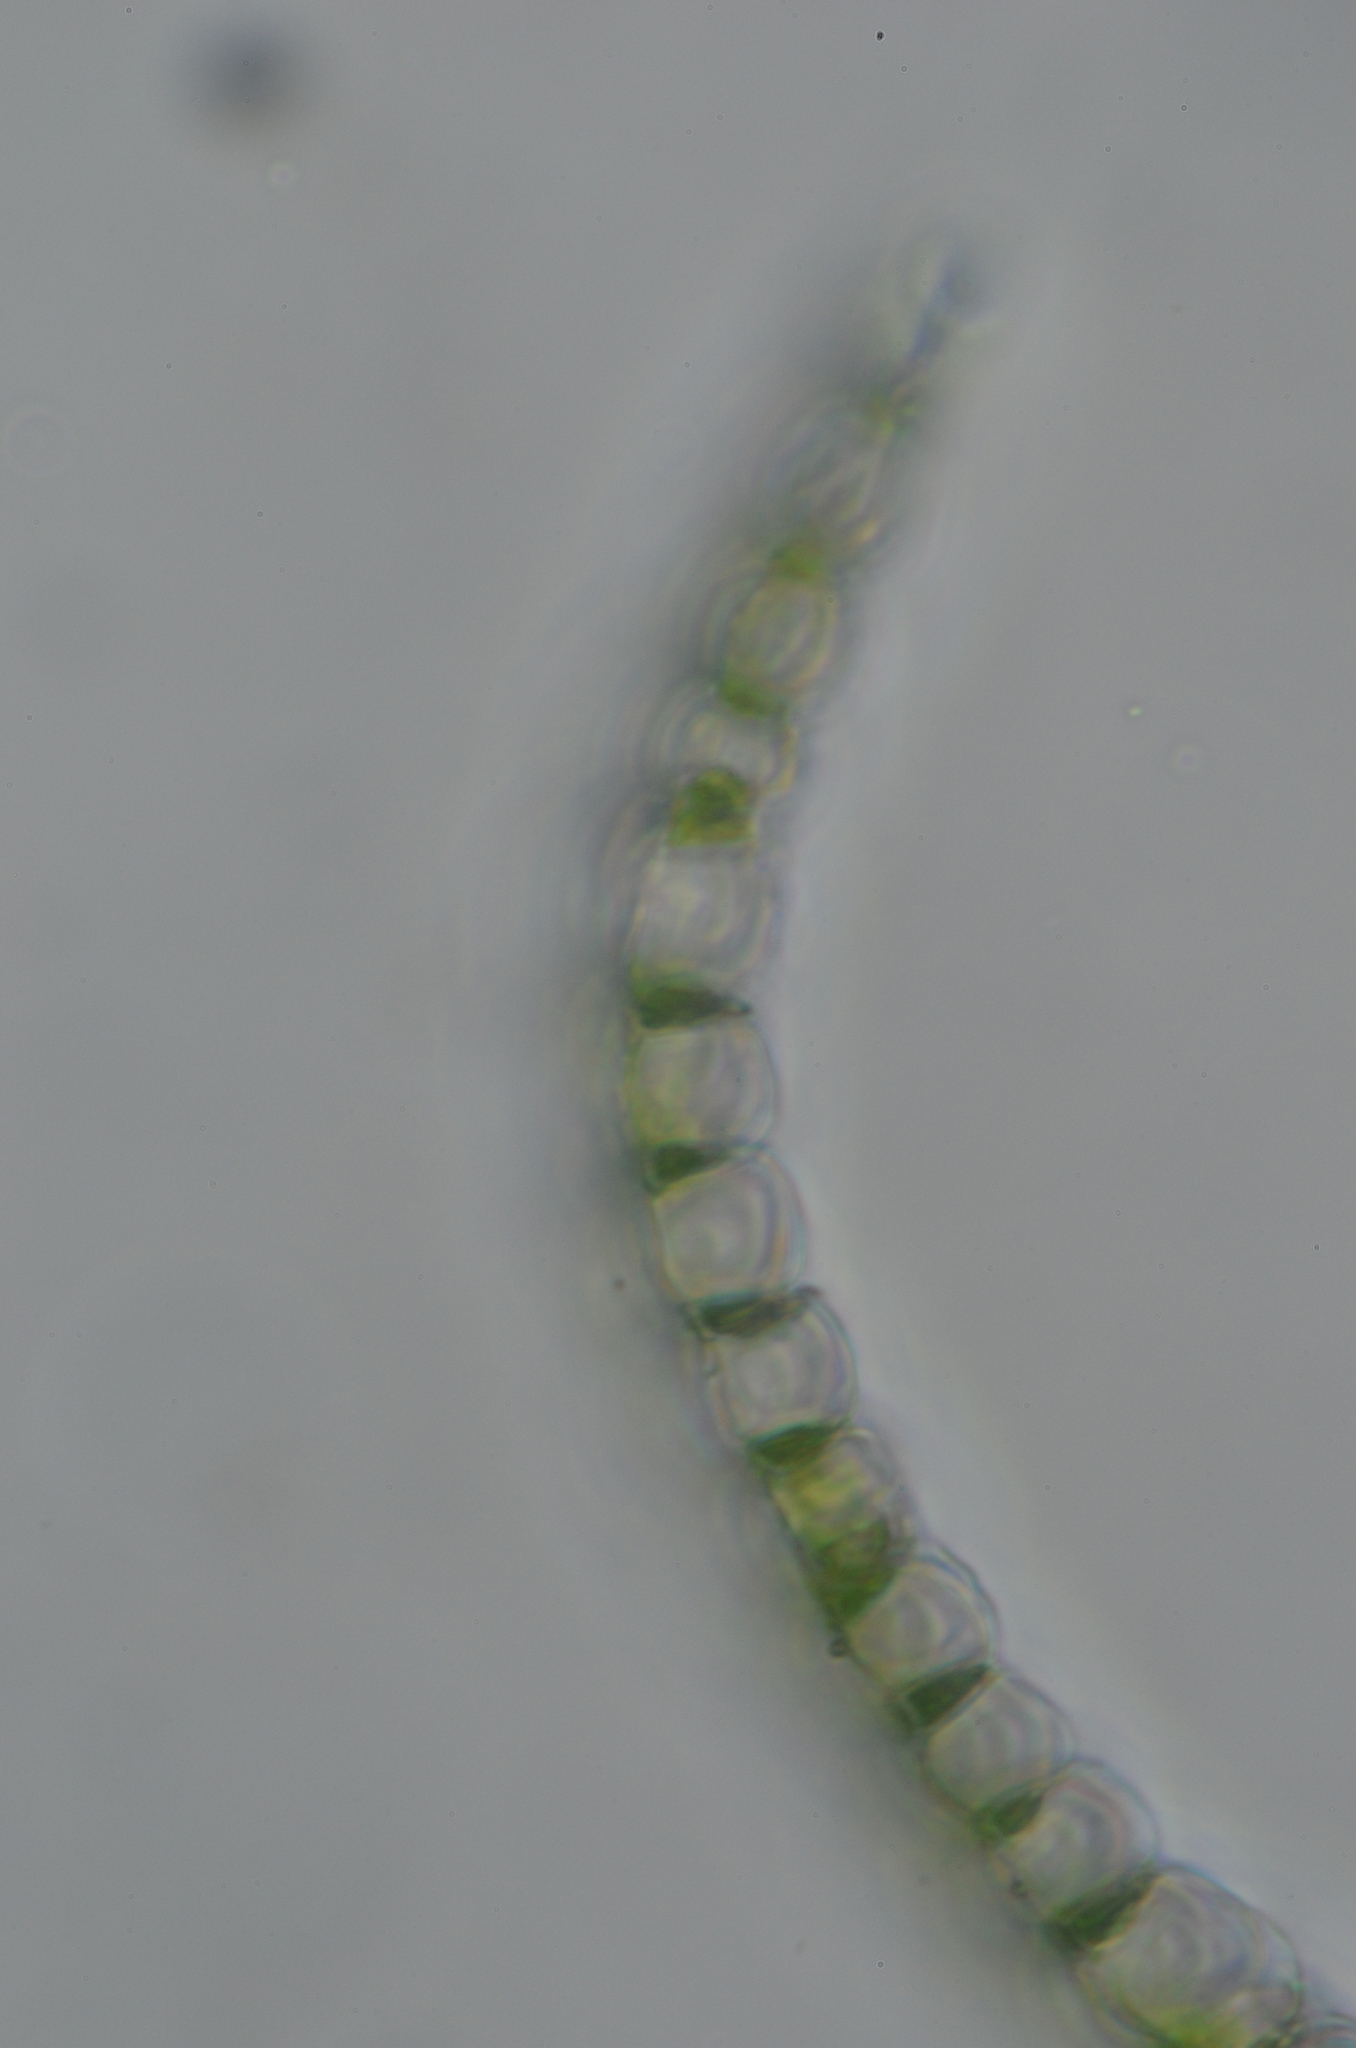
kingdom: Plantae
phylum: Bryophyta
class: Sphagnopsida
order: Sphagnales
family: Sphagnaceae
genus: Sphagnum
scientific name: Sphagnum mendocinum
